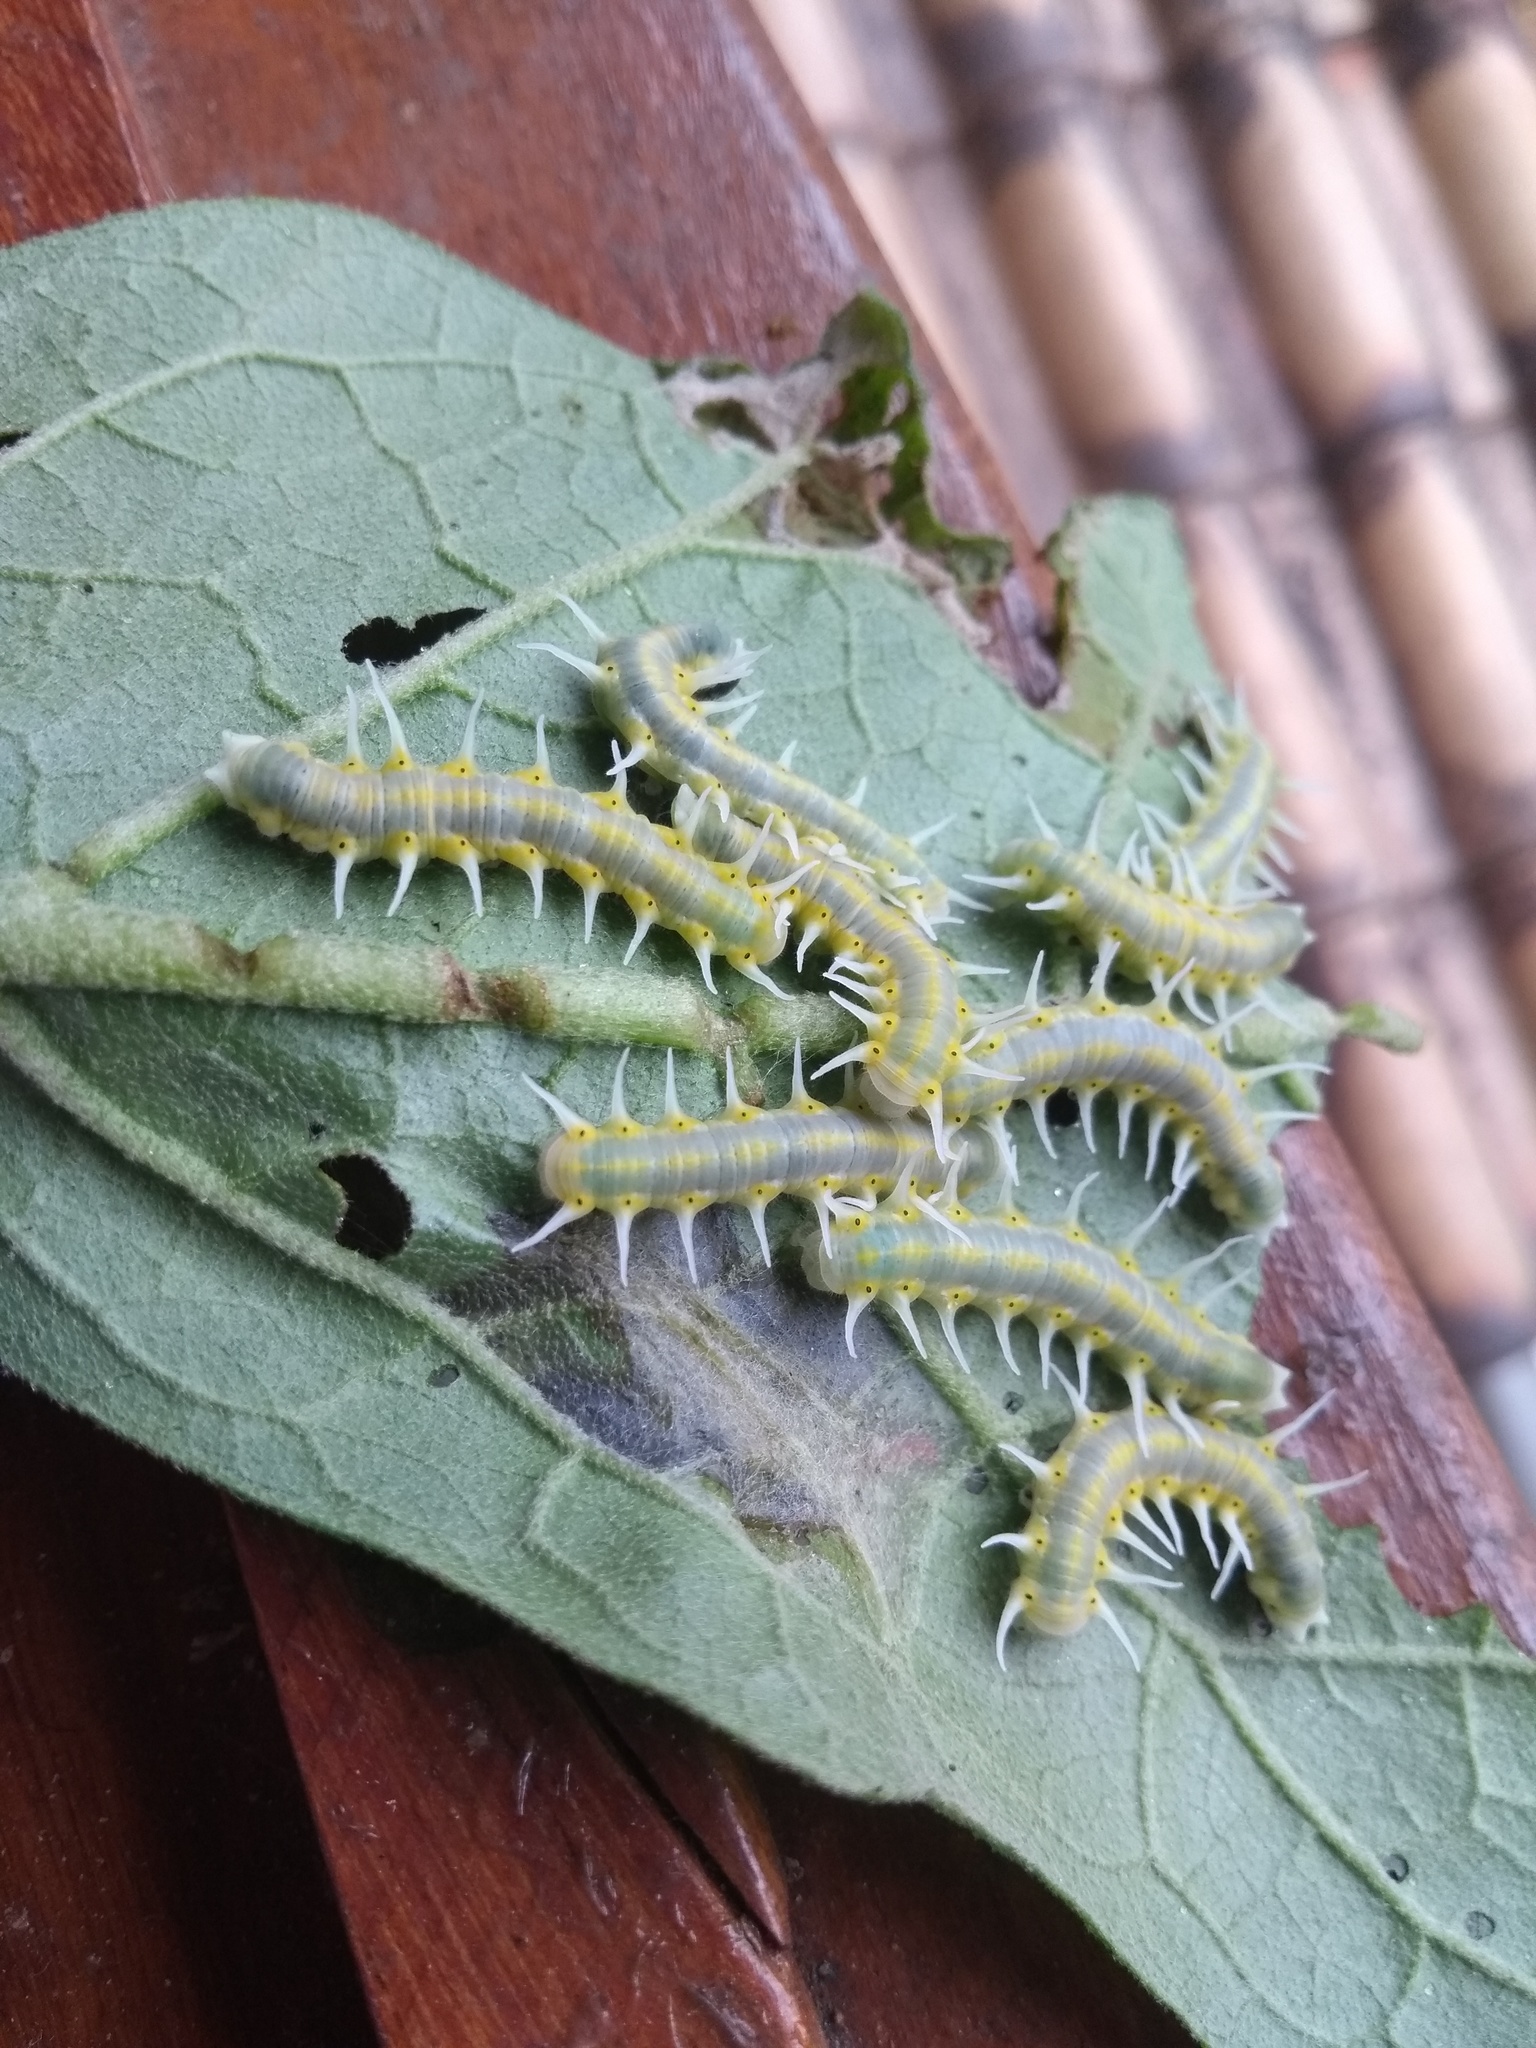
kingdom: Animalia
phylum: Arthropoda
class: Insecta
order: Lepidoptera
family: Nymphalidae
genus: Mechanitis
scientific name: Mechanitis lysimnia
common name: Lysimnia tigerwing
